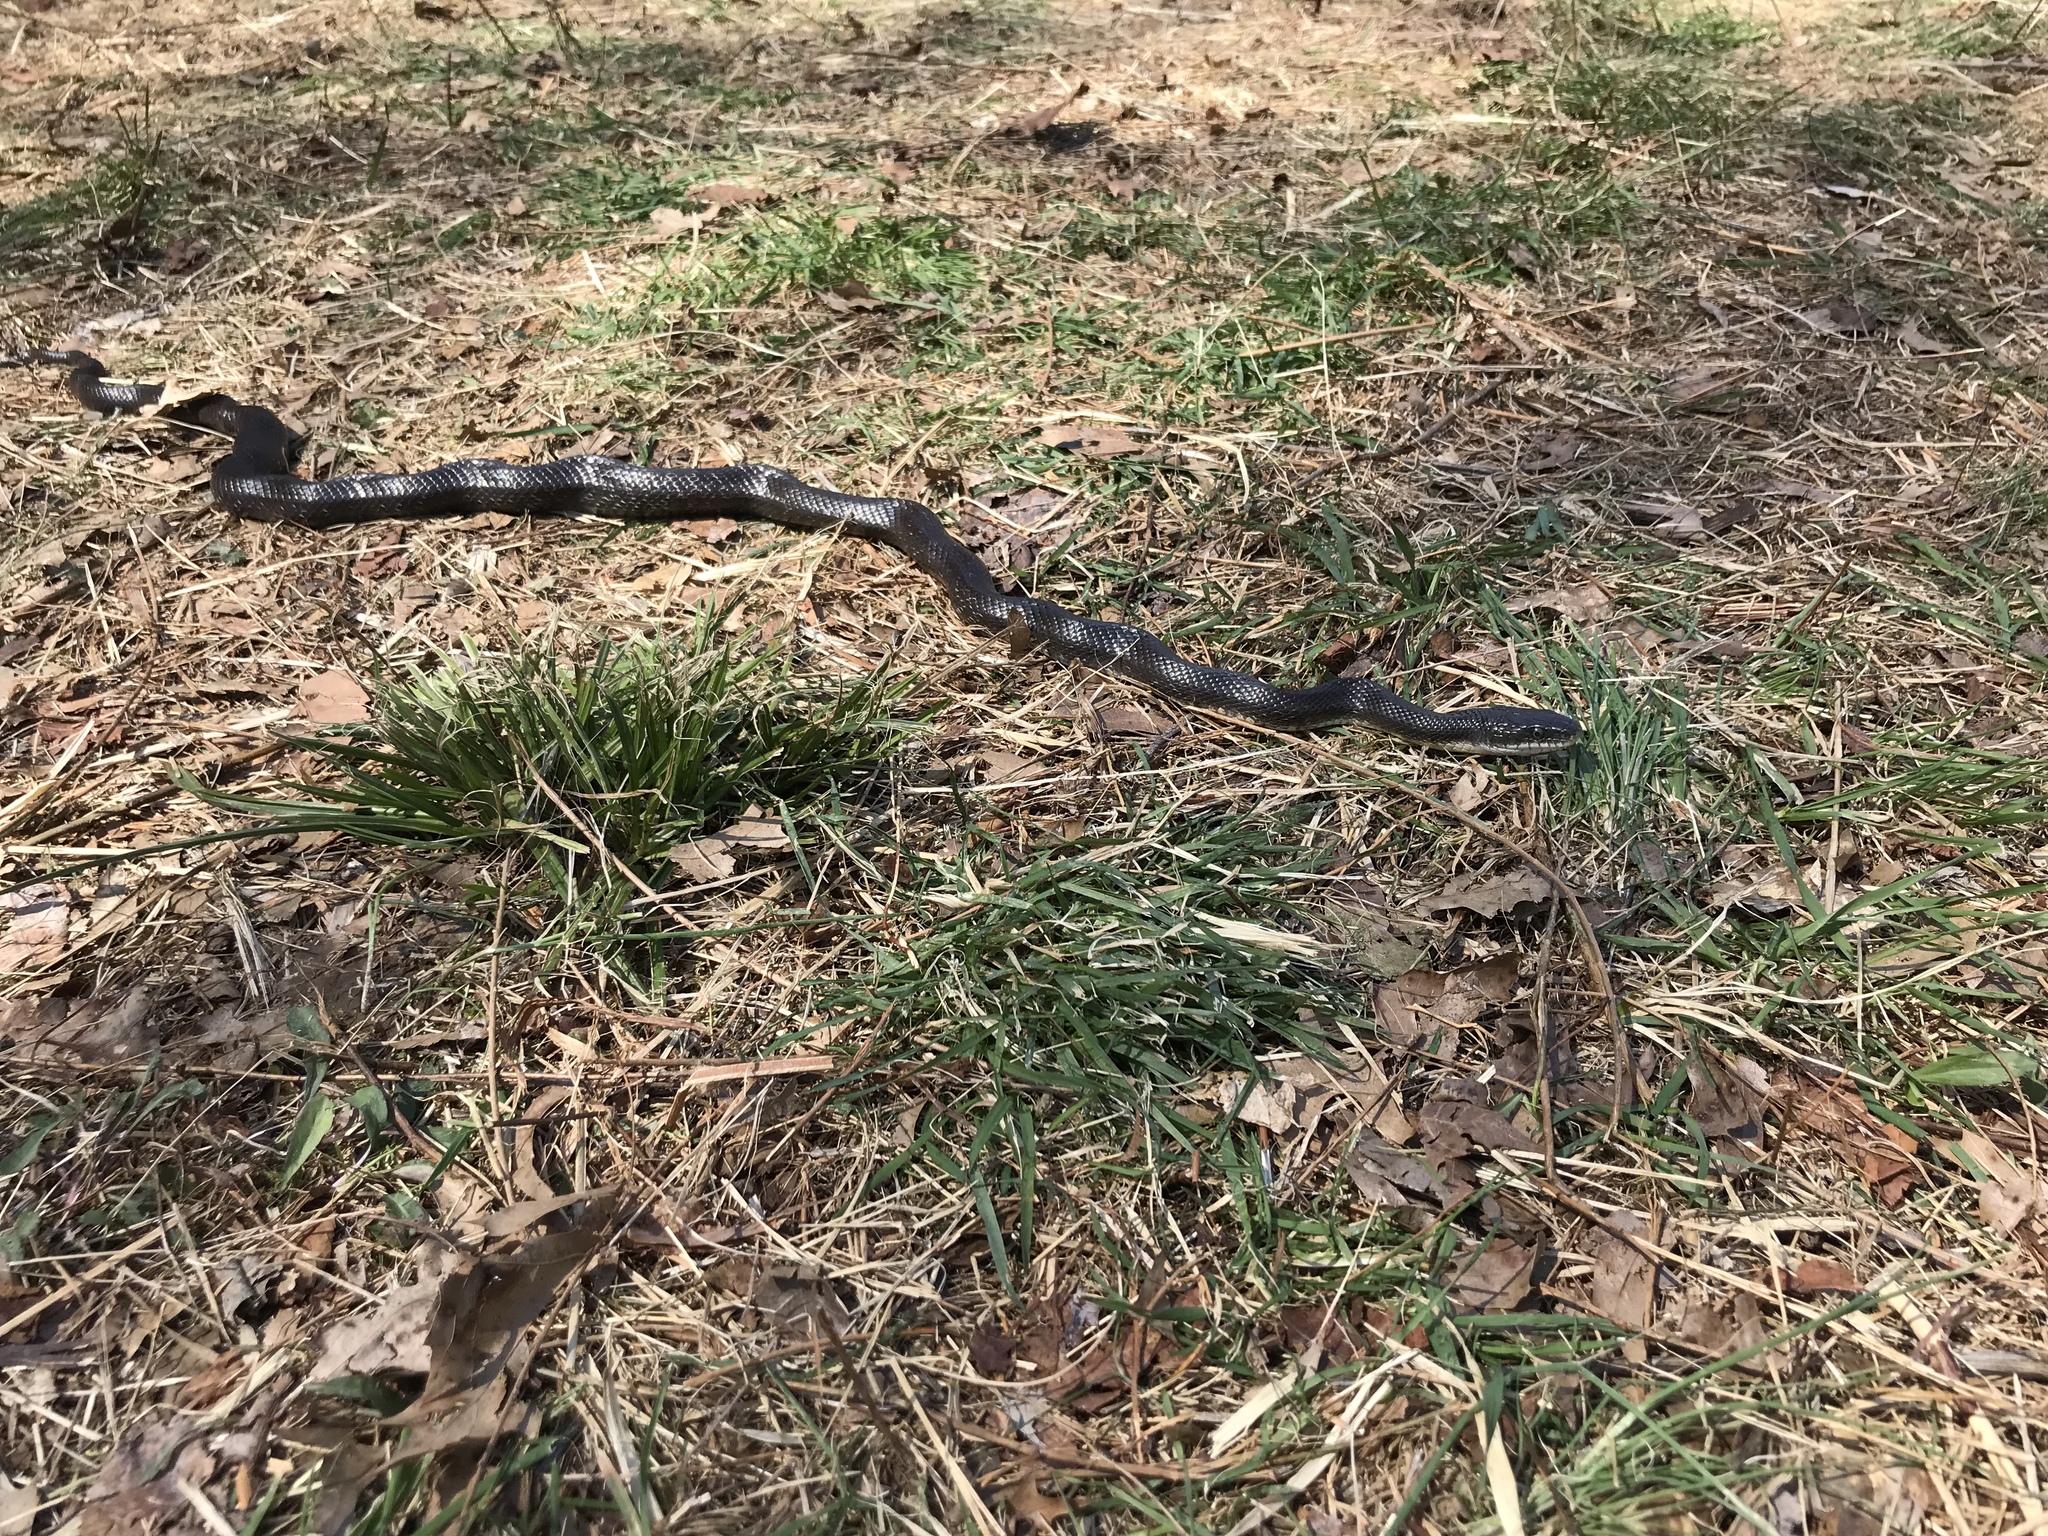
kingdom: Animalia
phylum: Chordata
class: Squamata
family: Colubridae
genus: Pantherophis
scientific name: Pantherophis alleghaniensis
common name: Eastern rat snake
